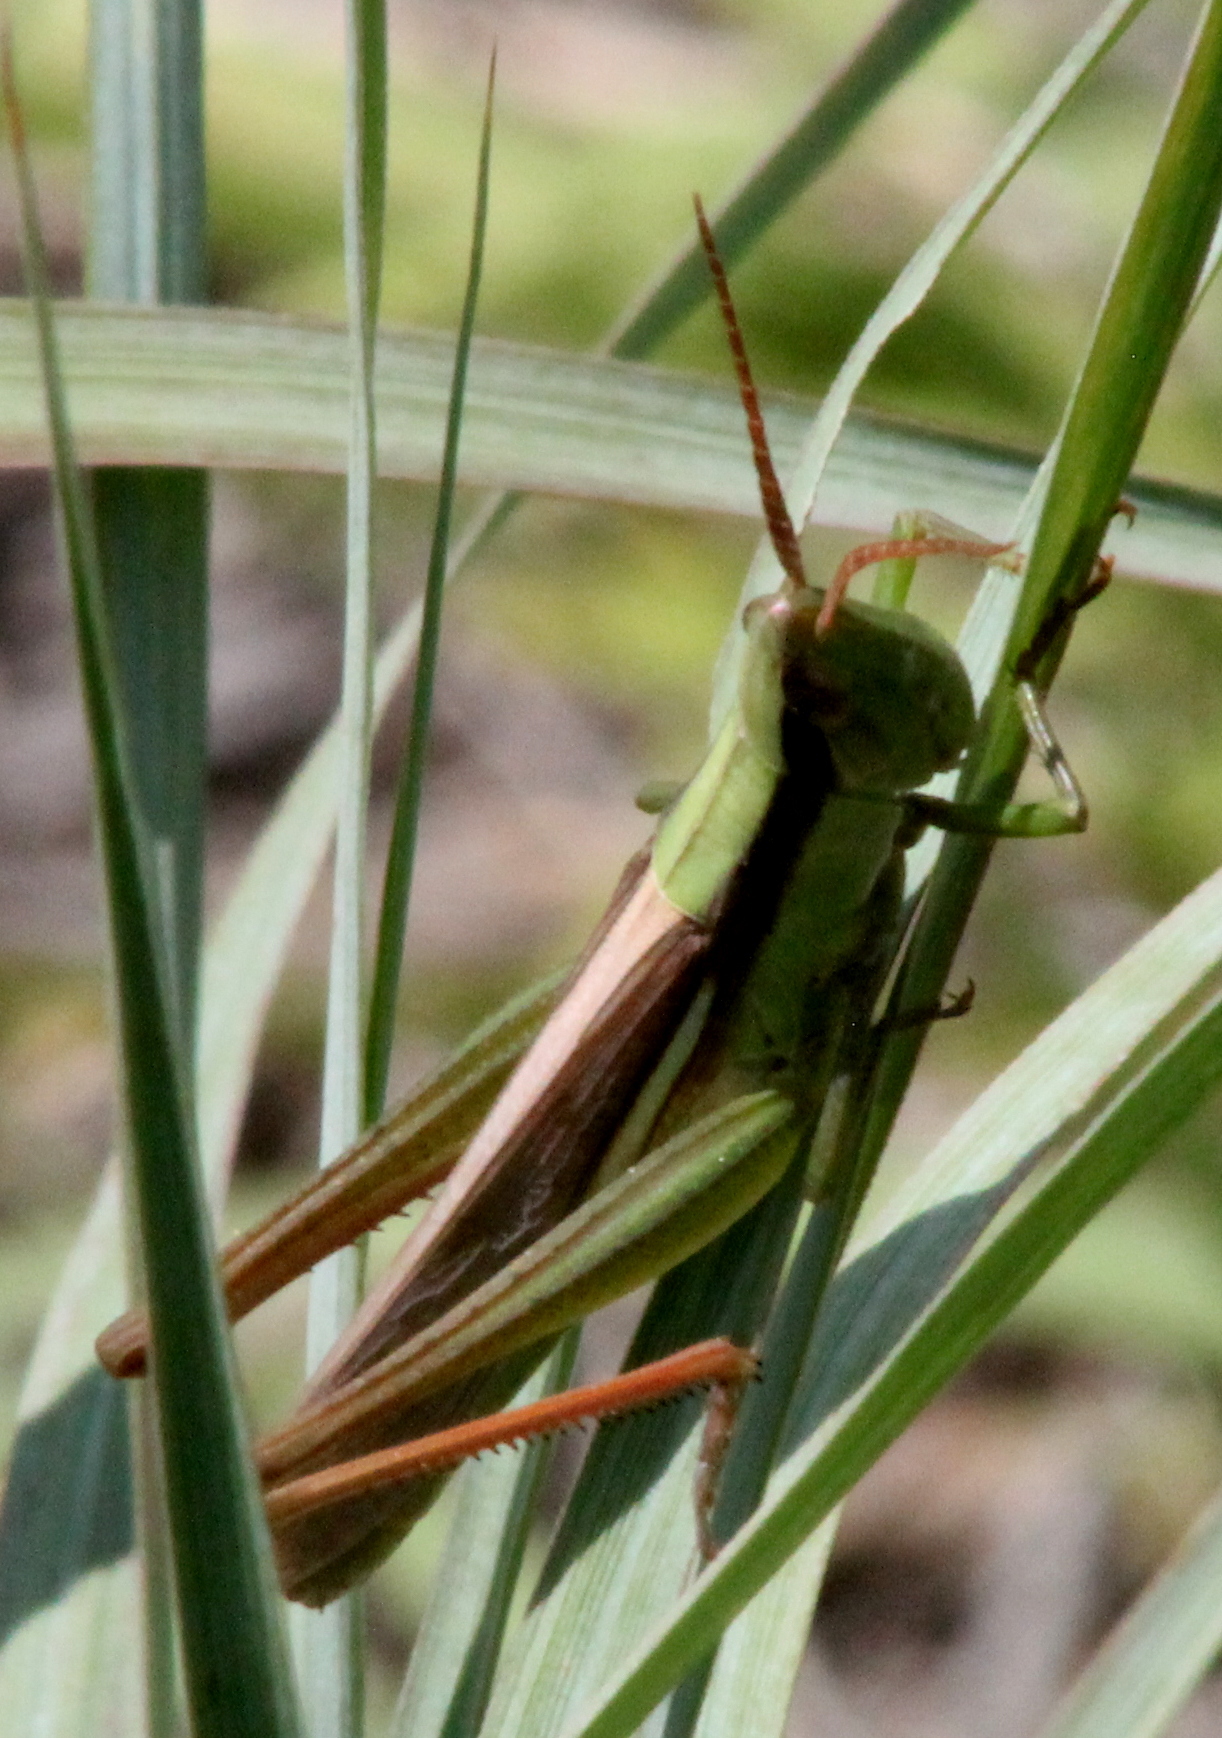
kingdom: Animalia
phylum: Arthropoda
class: Insecta
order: Orthoptera
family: Acrididae
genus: Mermiria
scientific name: Mermiria bivittata
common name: Two-striped mermiria grasshopper
